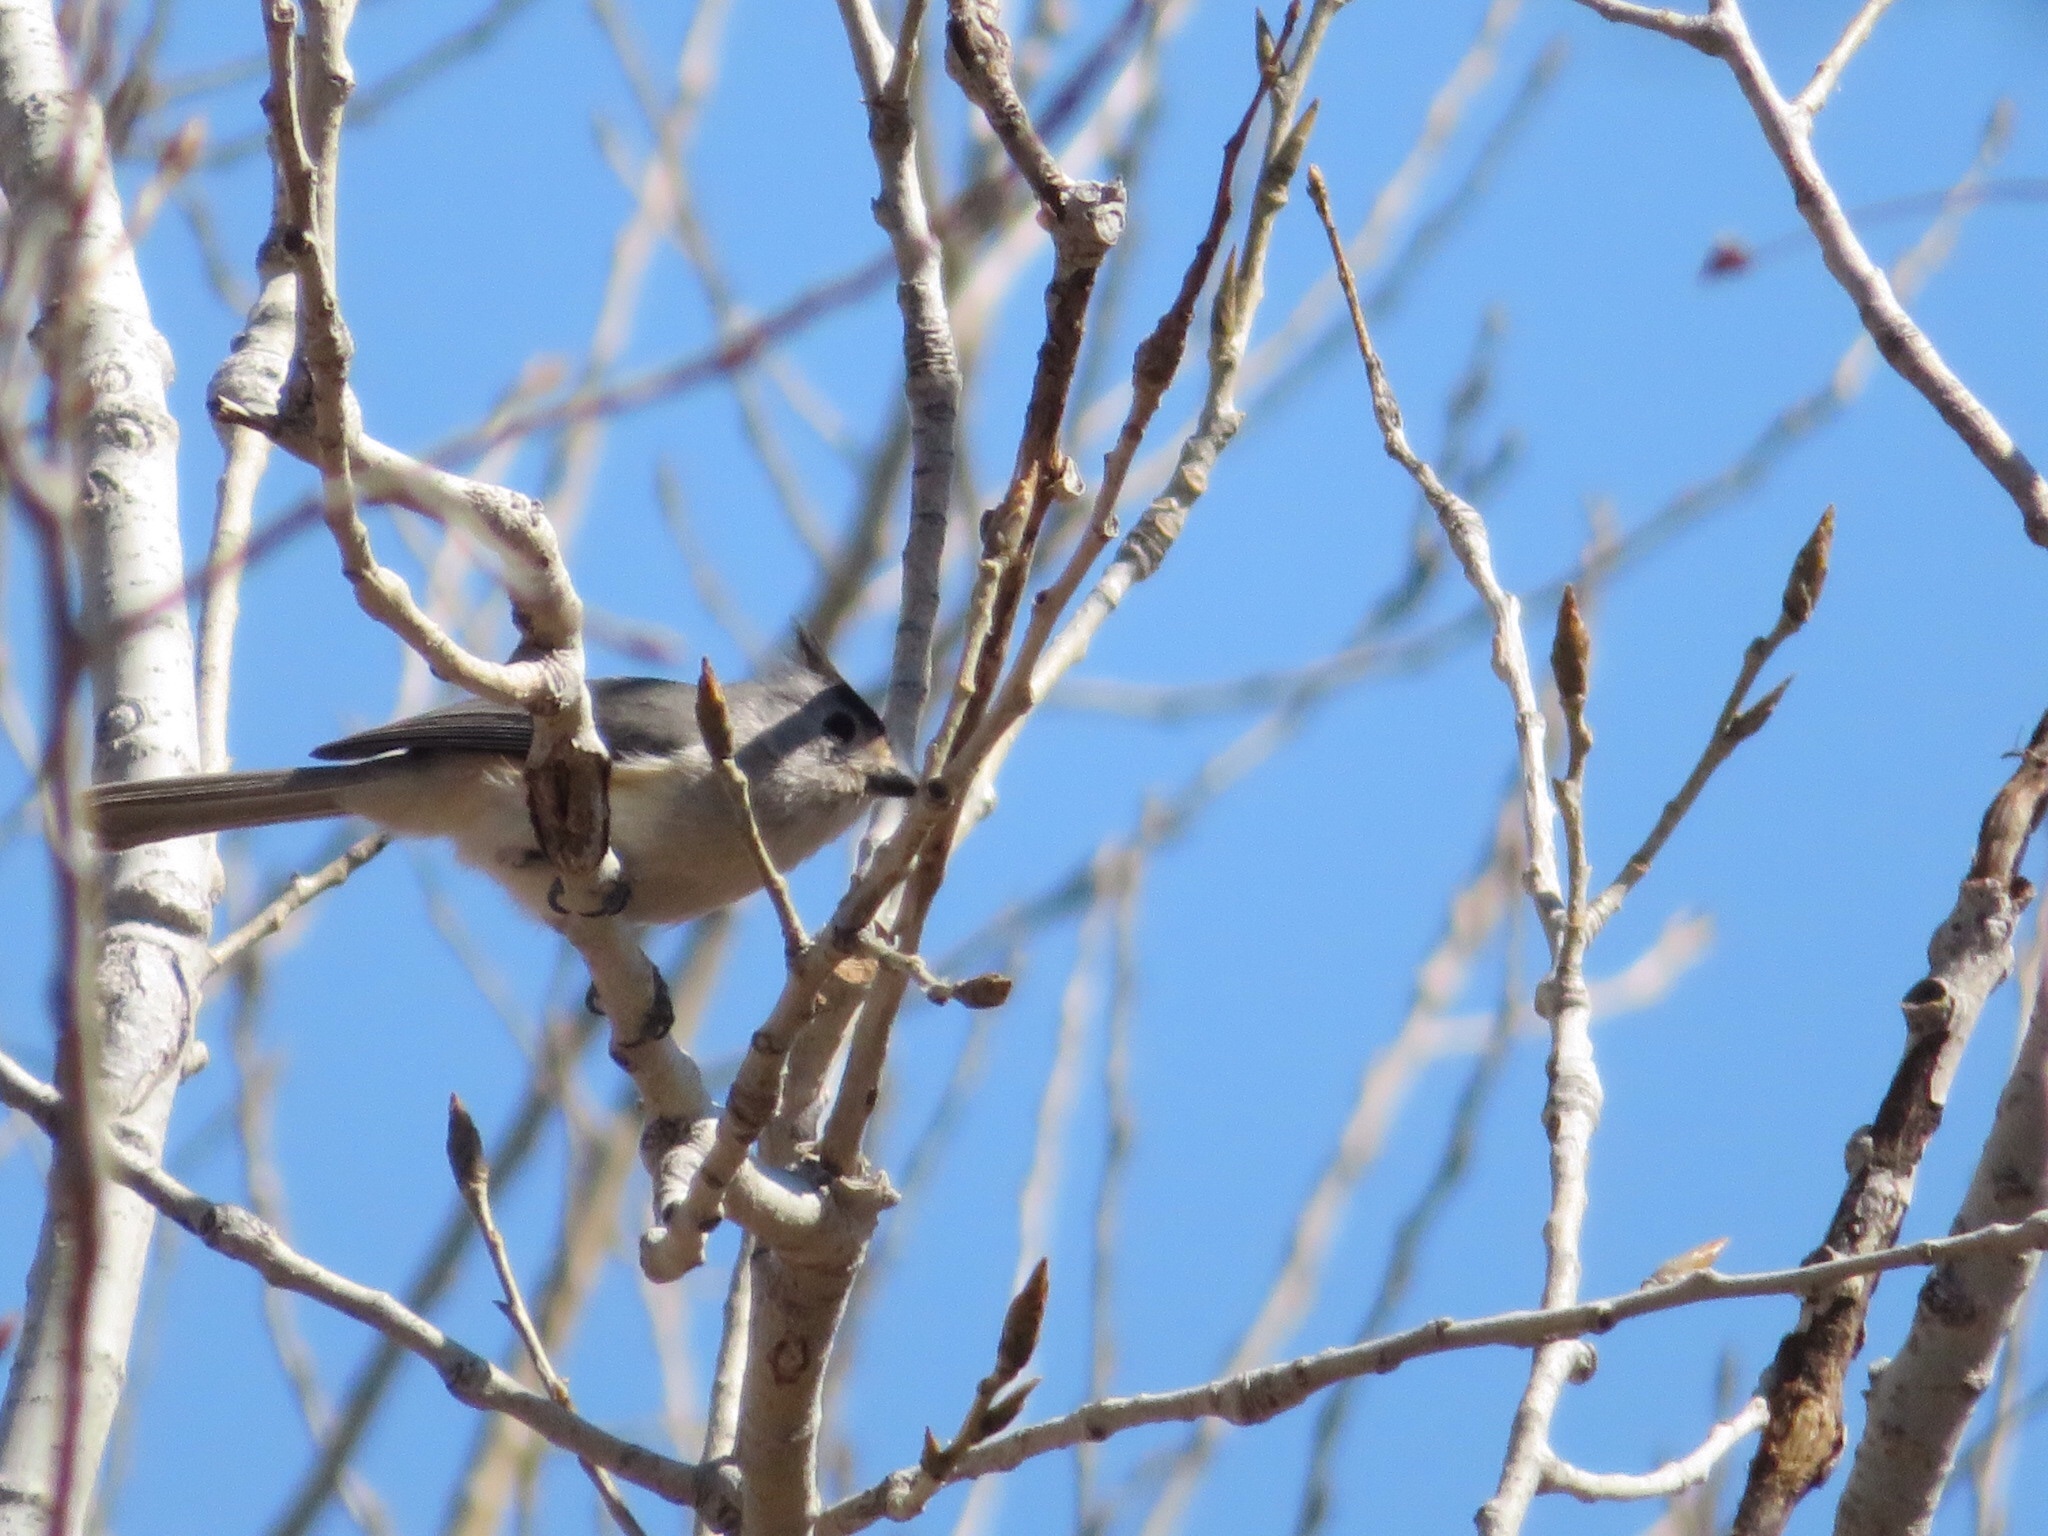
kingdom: Animalia
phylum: Chordata
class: Aves
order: Passeriformes
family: Paridae
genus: Baeolophus
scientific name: Baeolophus atricristatus
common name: Black-crested titmouse
